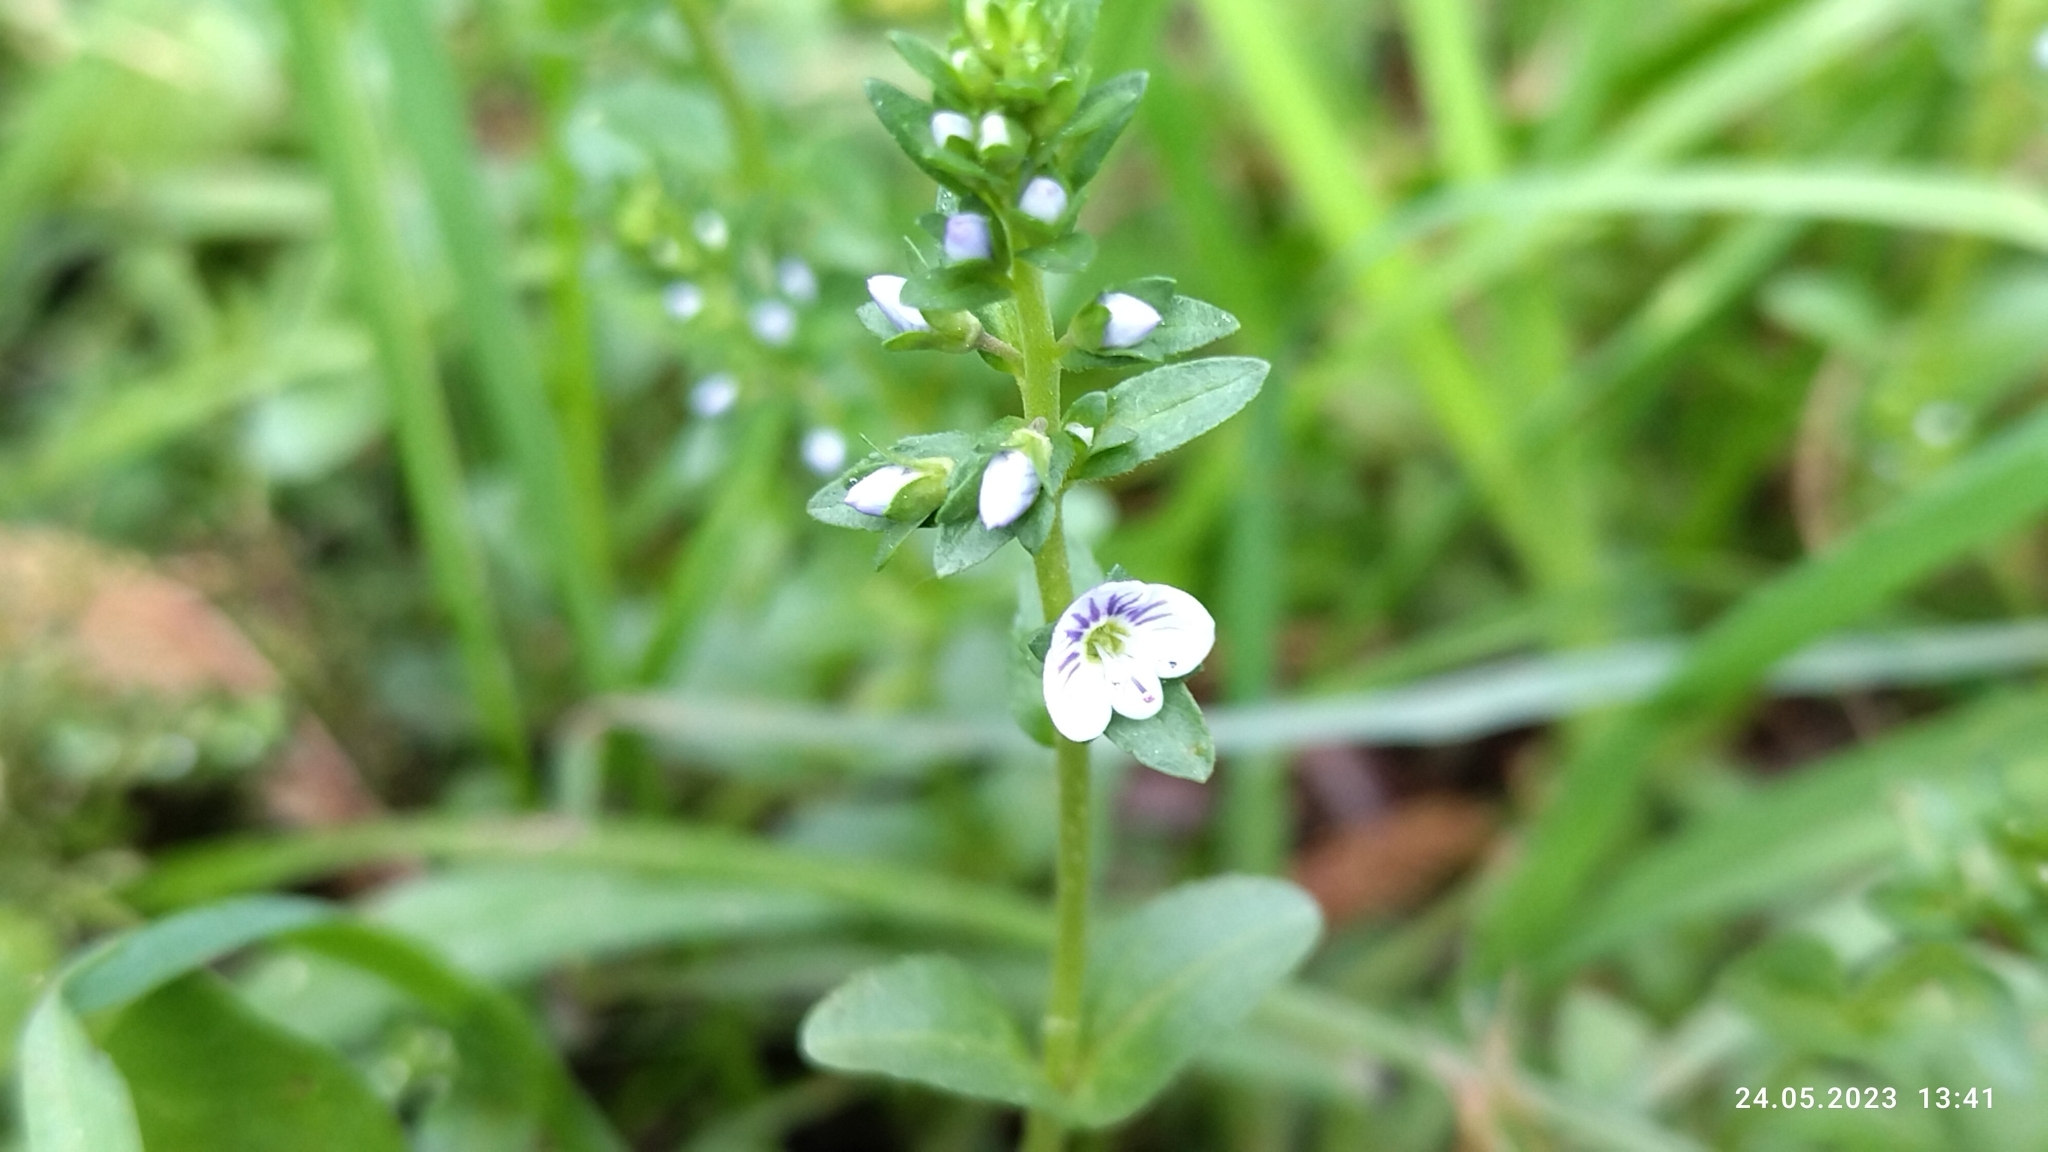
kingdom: Plantae
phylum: Tracheophyta
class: Magnoliopsida
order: Lamiales
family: Plantaginaceae
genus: Veronica
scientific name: Veronica serpyllifolia
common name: Thyme-leaved speedwell
